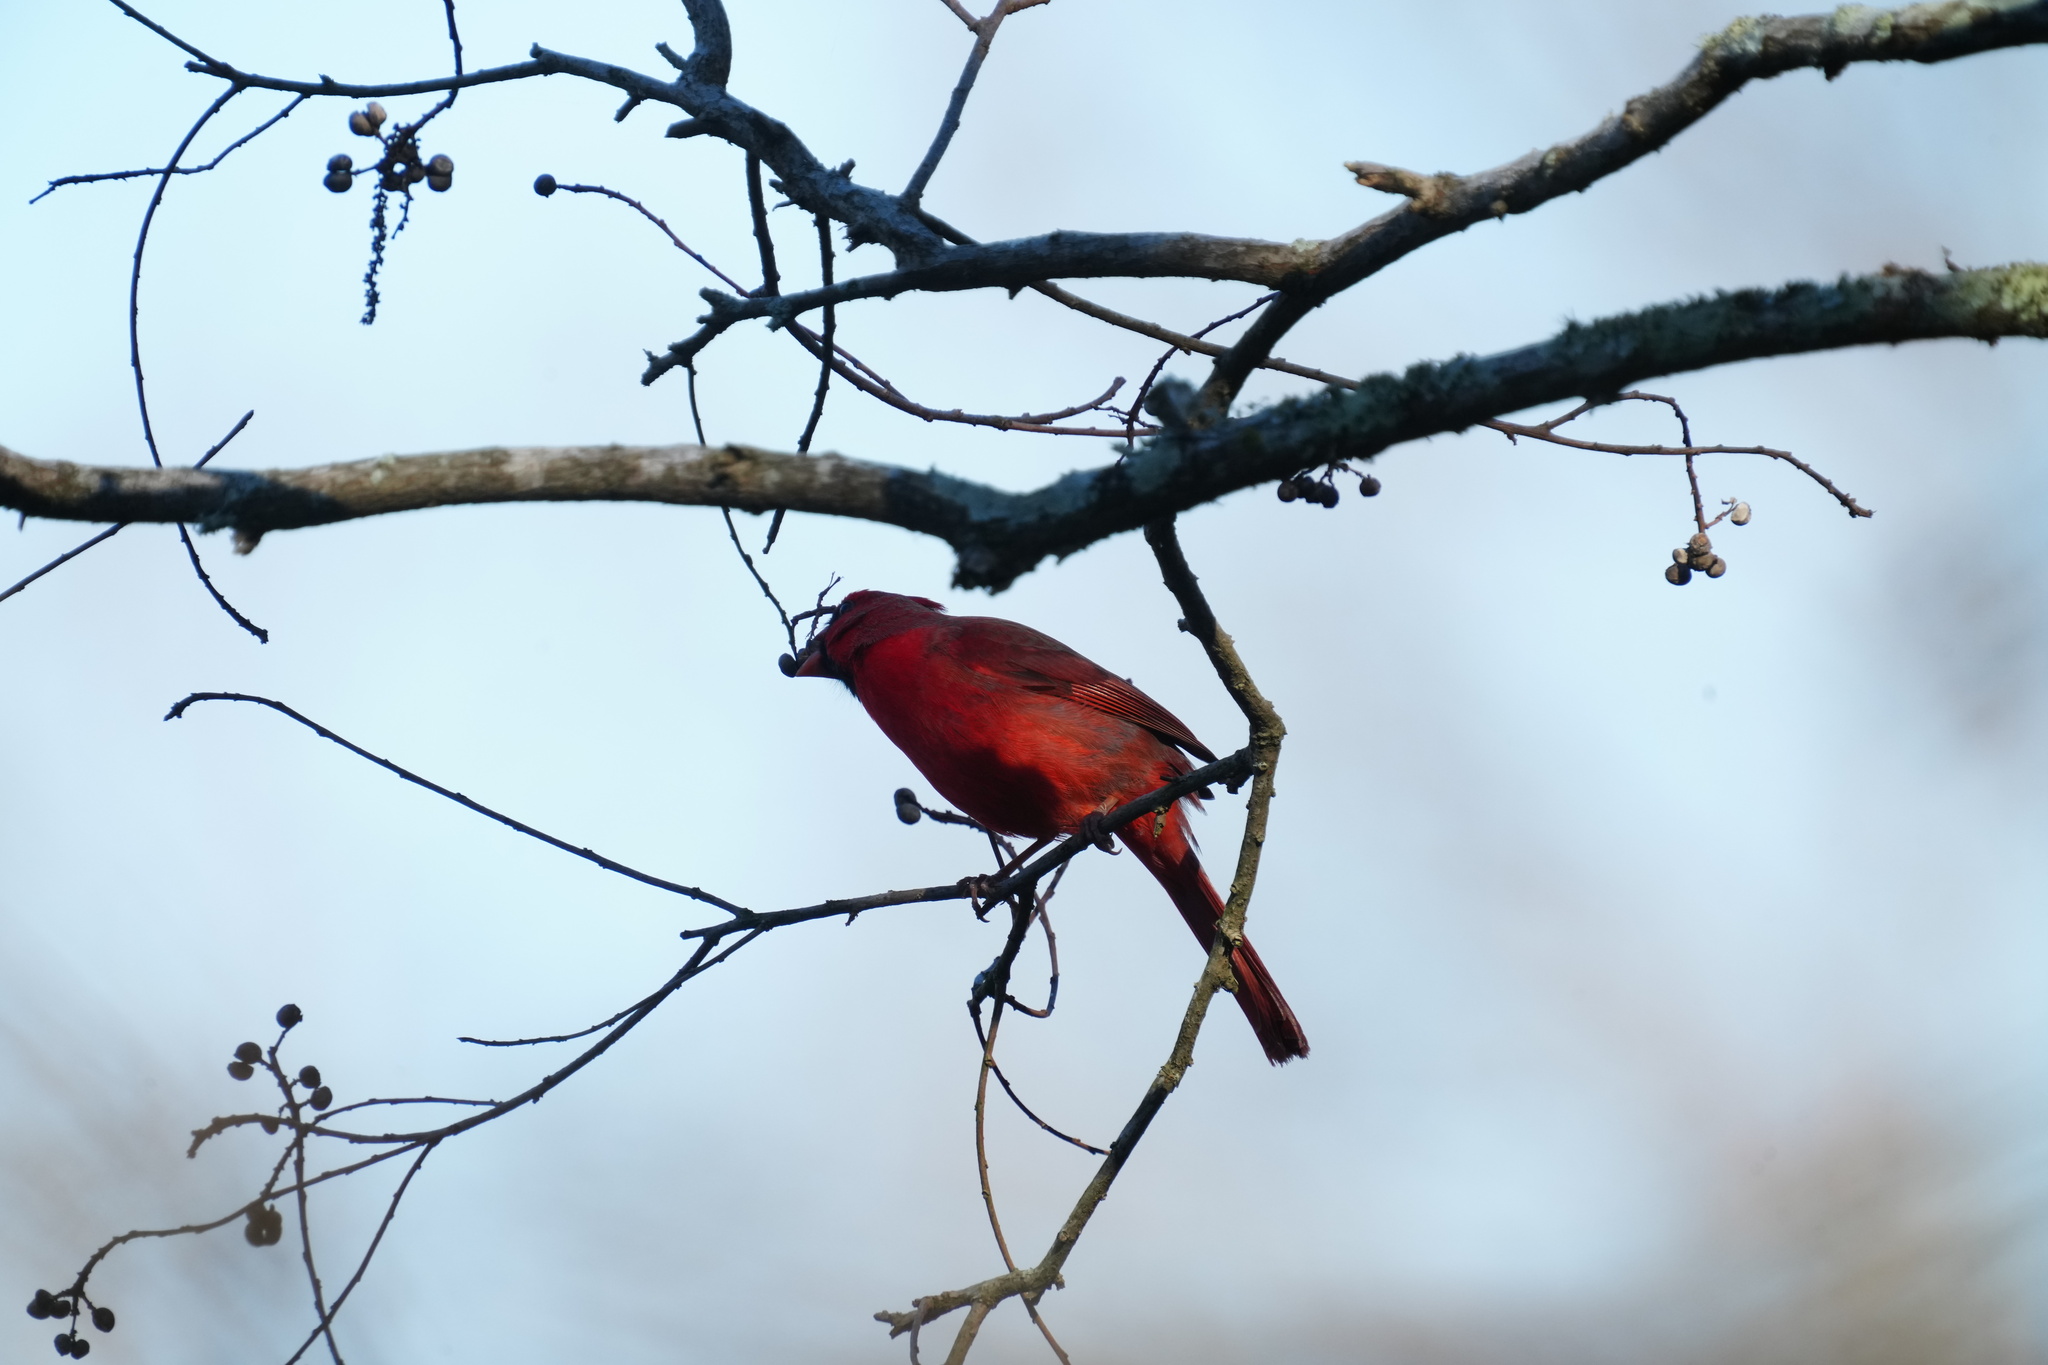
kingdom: Animalia
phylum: Chordata
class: Aves
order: Passeriformes
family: Cardinalidae
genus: Cardinalis
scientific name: Cardinalis cardinalis
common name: Northern cardinal
